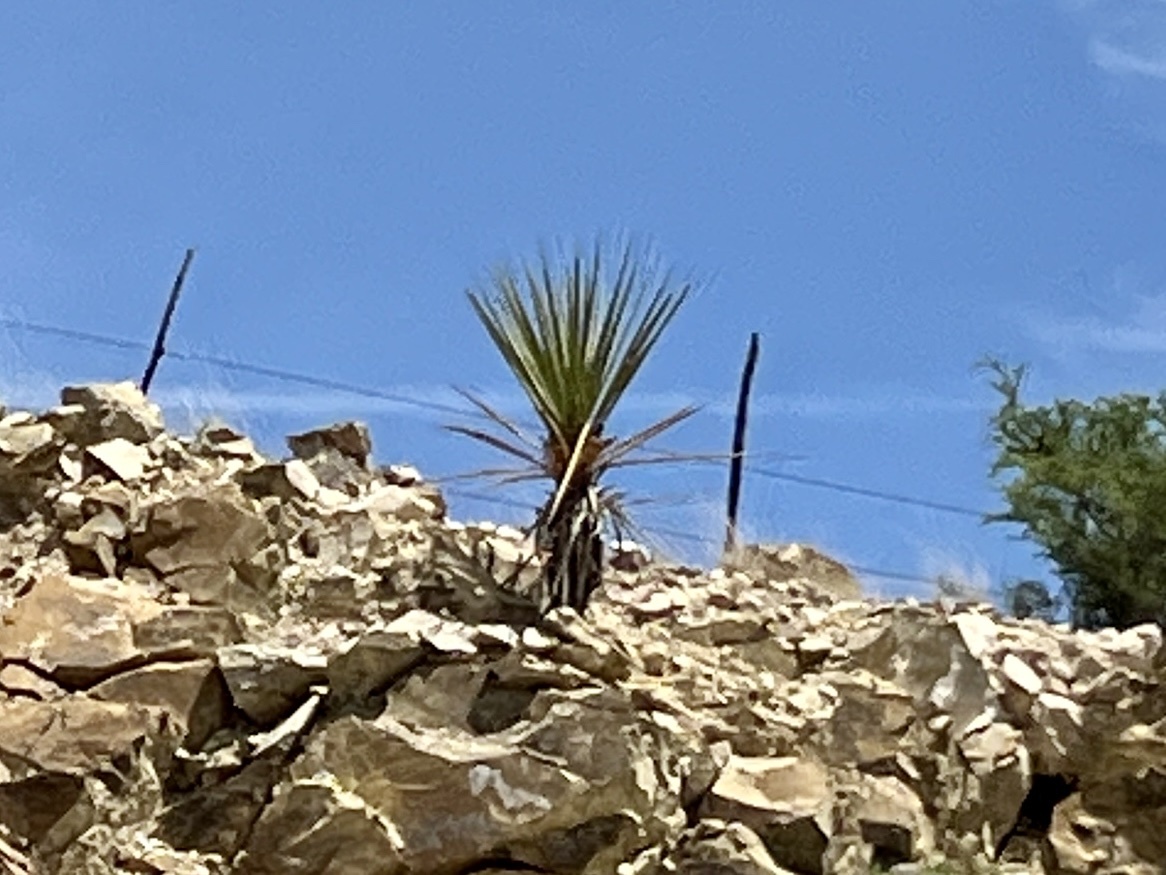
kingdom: Plantae
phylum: Tracheophyta
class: Liliopsida
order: Asparagales
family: Asparagaceae
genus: Yucca
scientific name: Yucca treculiana
